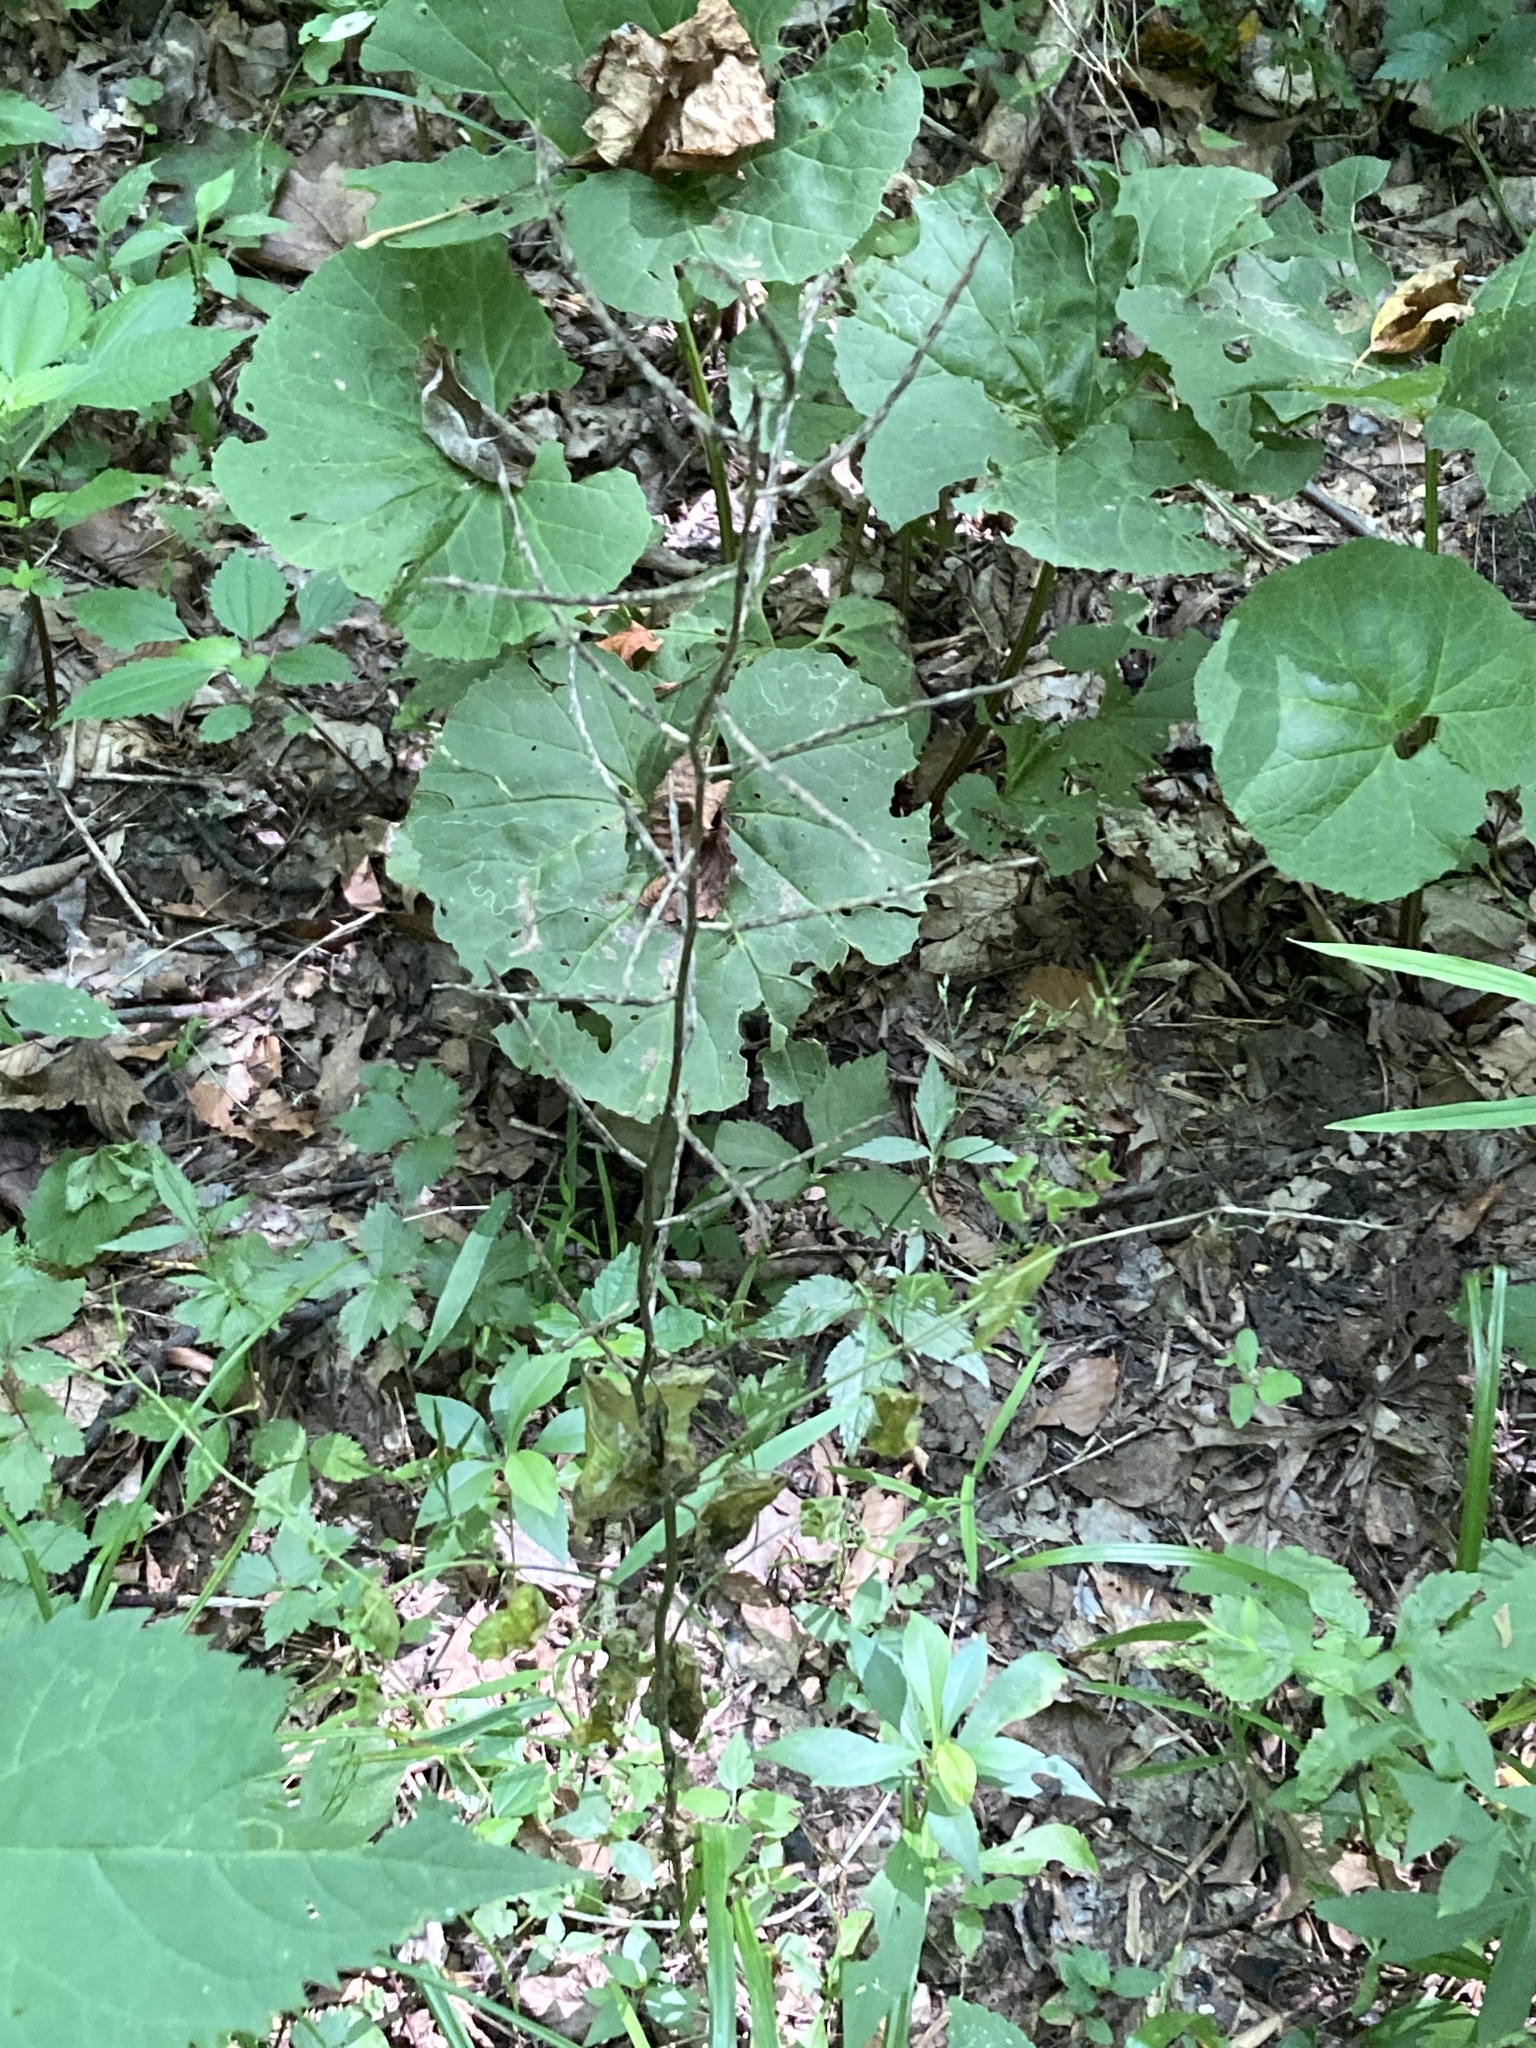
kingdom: Plantae
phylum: Tracheophyta
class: Magnoliopsida
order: Brassicales
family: Brassicaceae
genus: Alliaria
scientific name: Alliaria petiolata
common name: Garlic mustard
